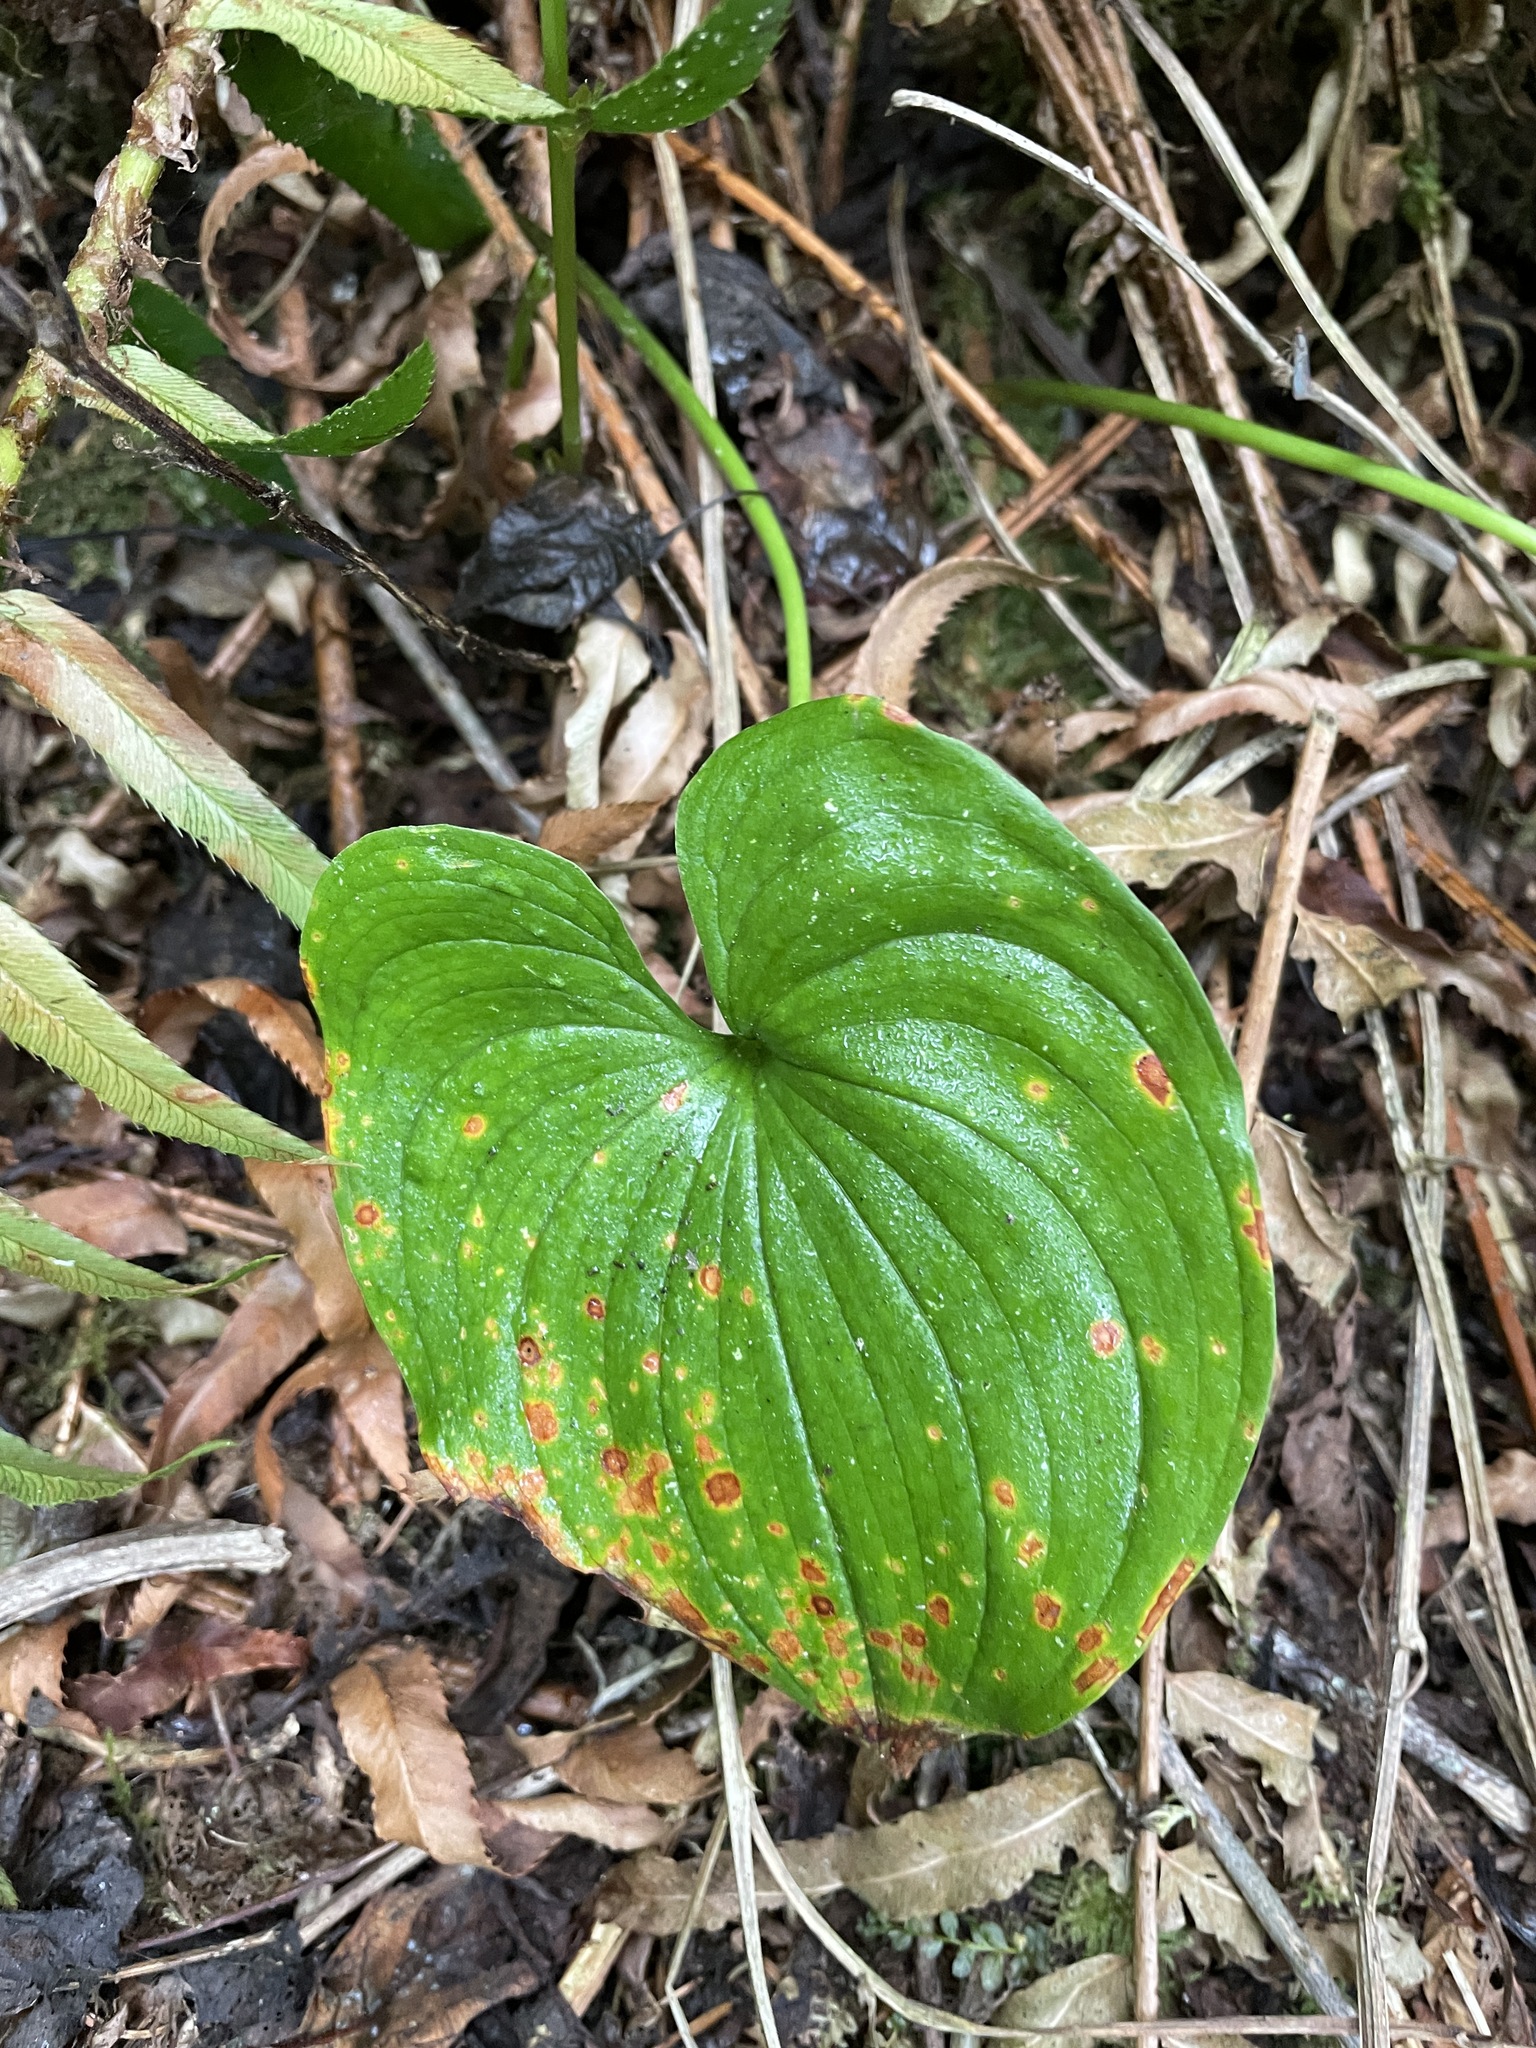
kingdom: Plantae
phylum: Tracheophyta
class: Liliopsida
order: Asparagales
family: Asparagaceae
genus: Maianthemum
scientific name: Maianthemum dilatatum
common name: False lily-of-the-valley
